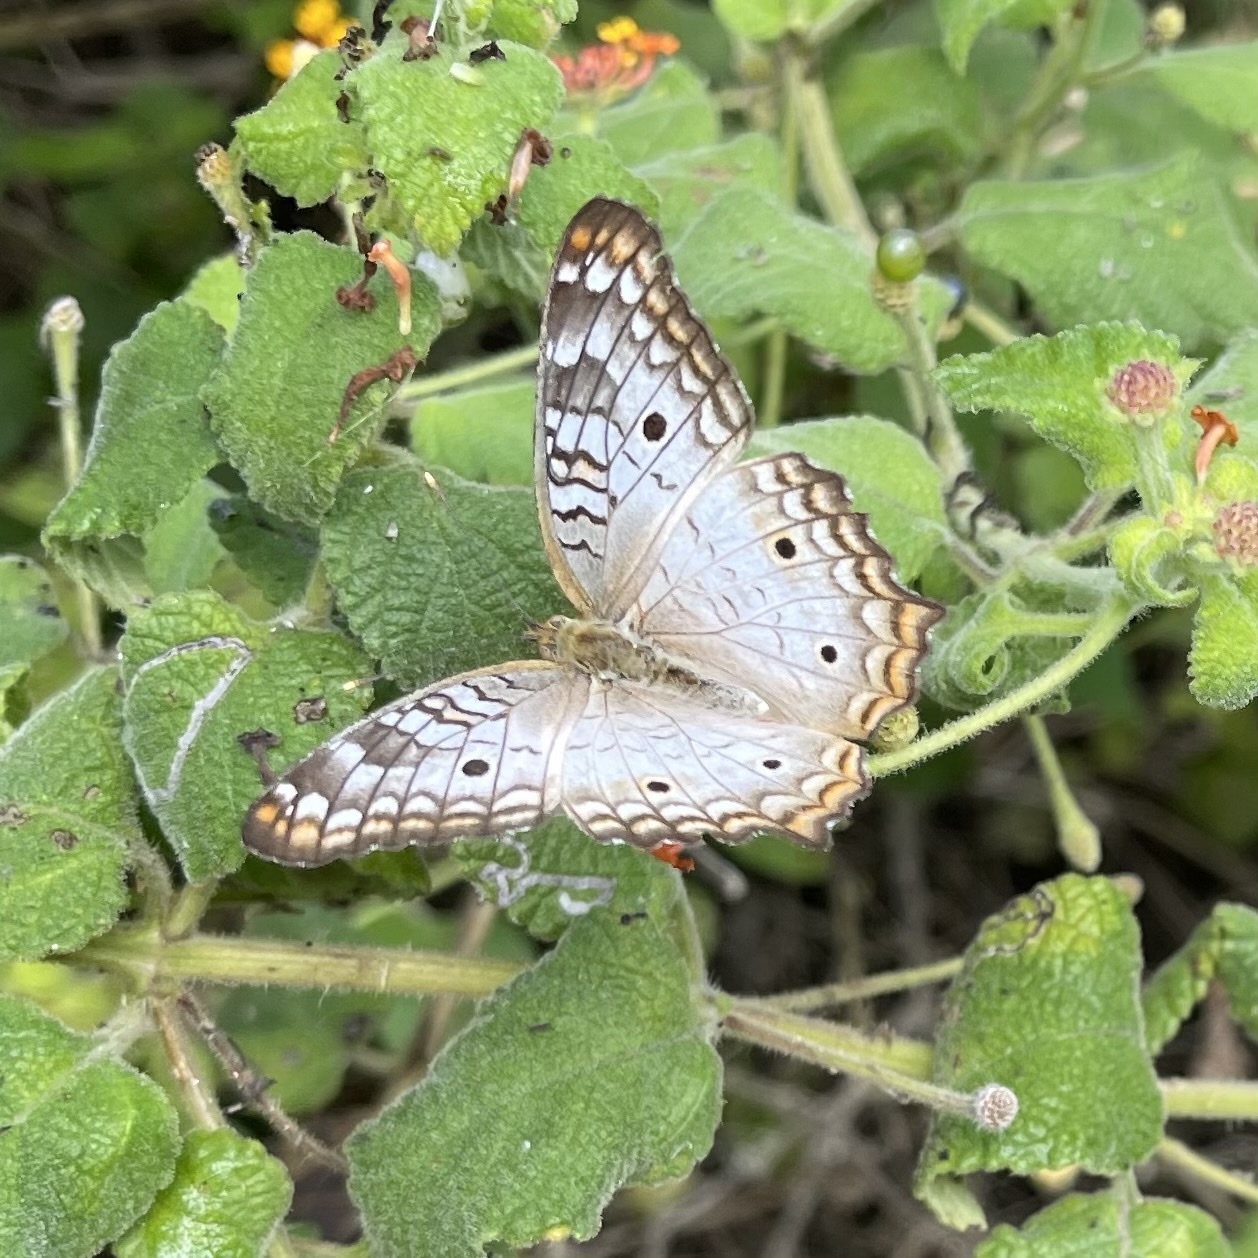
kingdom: Animalia
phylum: Arthropoda
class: Insecta
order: Lepidoptera
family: Nymphalidae
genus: Anartia
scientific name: Anartia jatrophae
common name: White peacock
